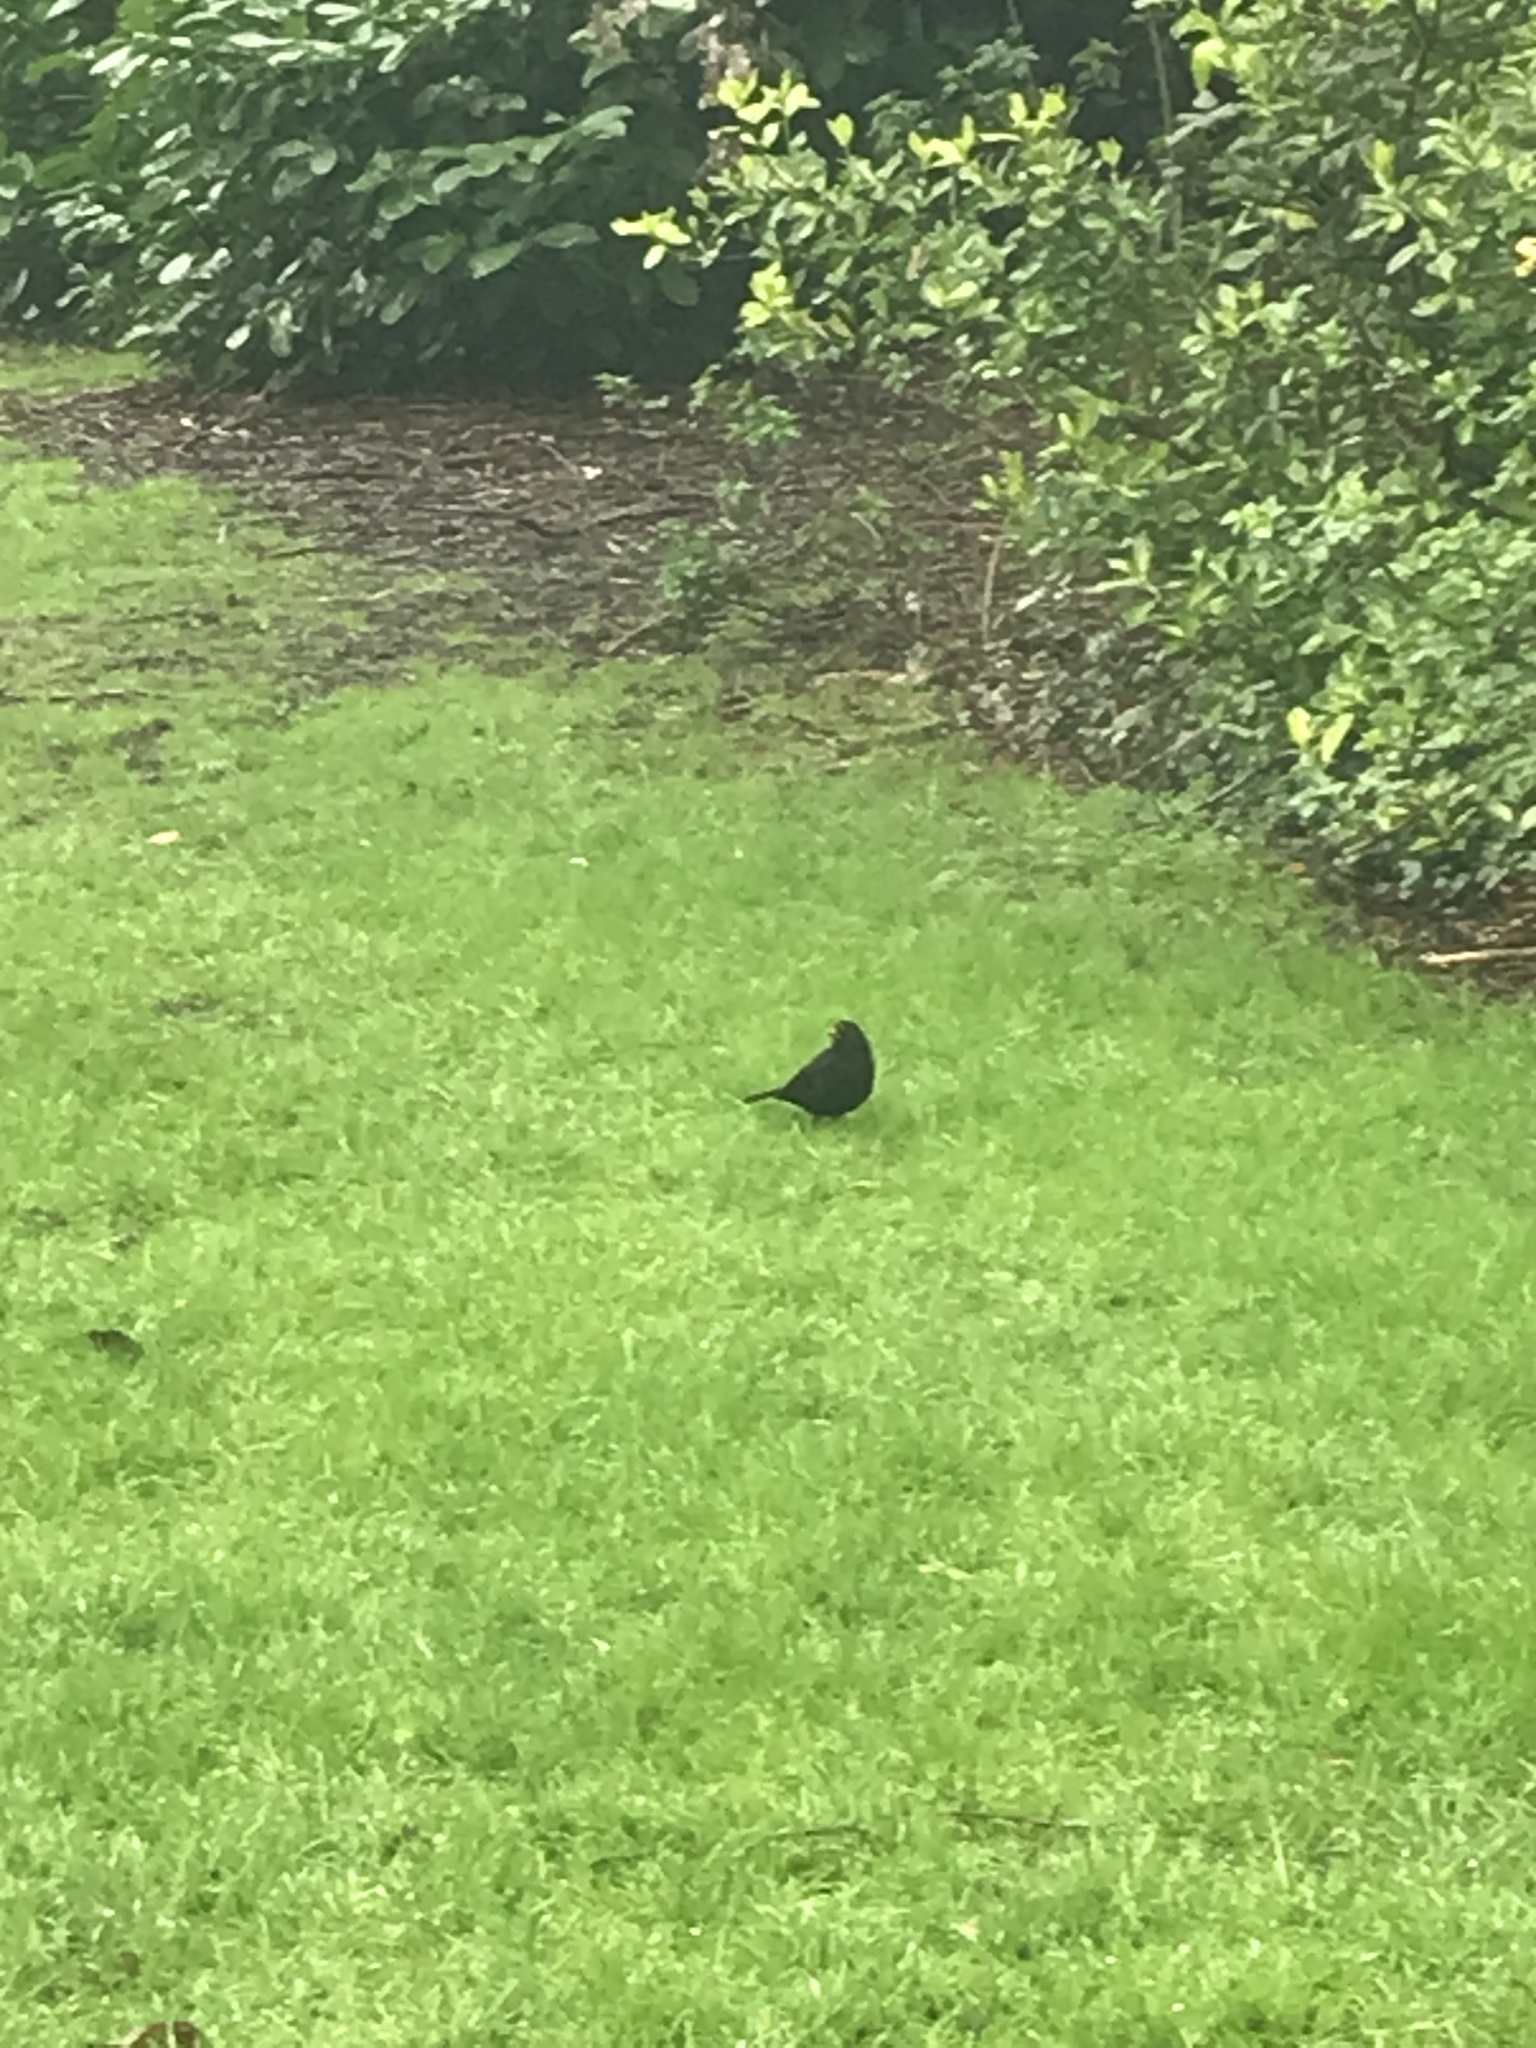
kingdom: Animalia
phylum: Chordata
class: Aves
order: Passeriformes
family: Turdidae
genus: Turdus
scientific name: Turdus merula
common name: Common blackbird
